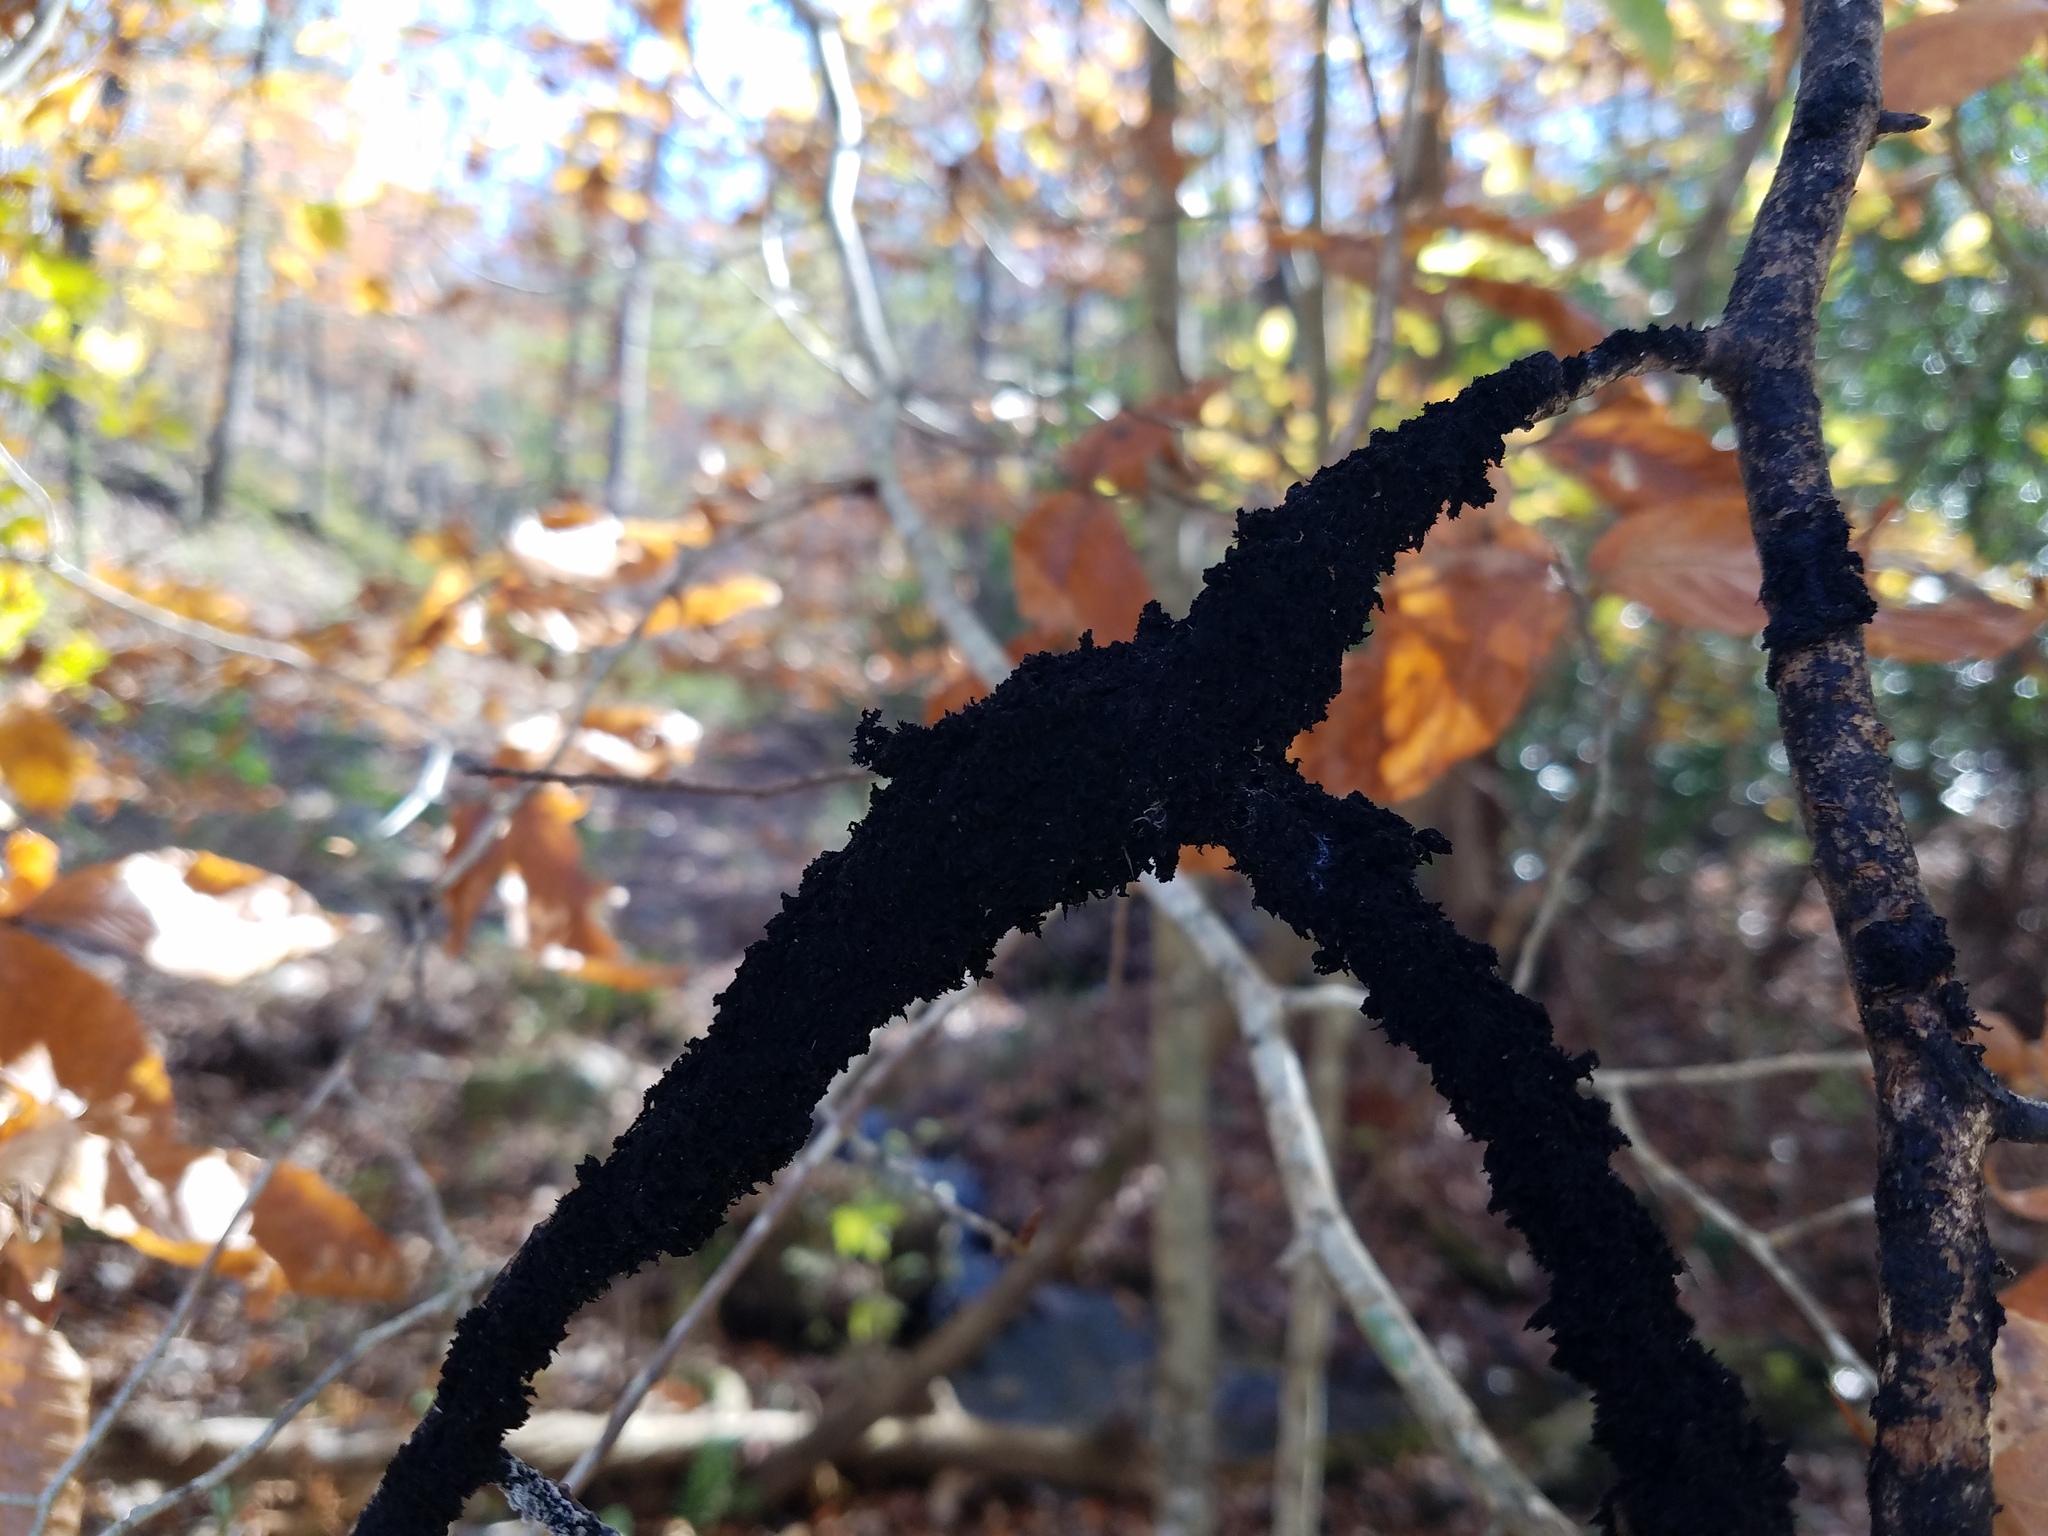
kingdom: Fungi
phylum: Ascomycota
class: Dothideomycetes
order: Capnodiales
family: Capnodiaceae
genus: Scorias
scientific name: Scorias spongiosa
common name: Black sooty mold
